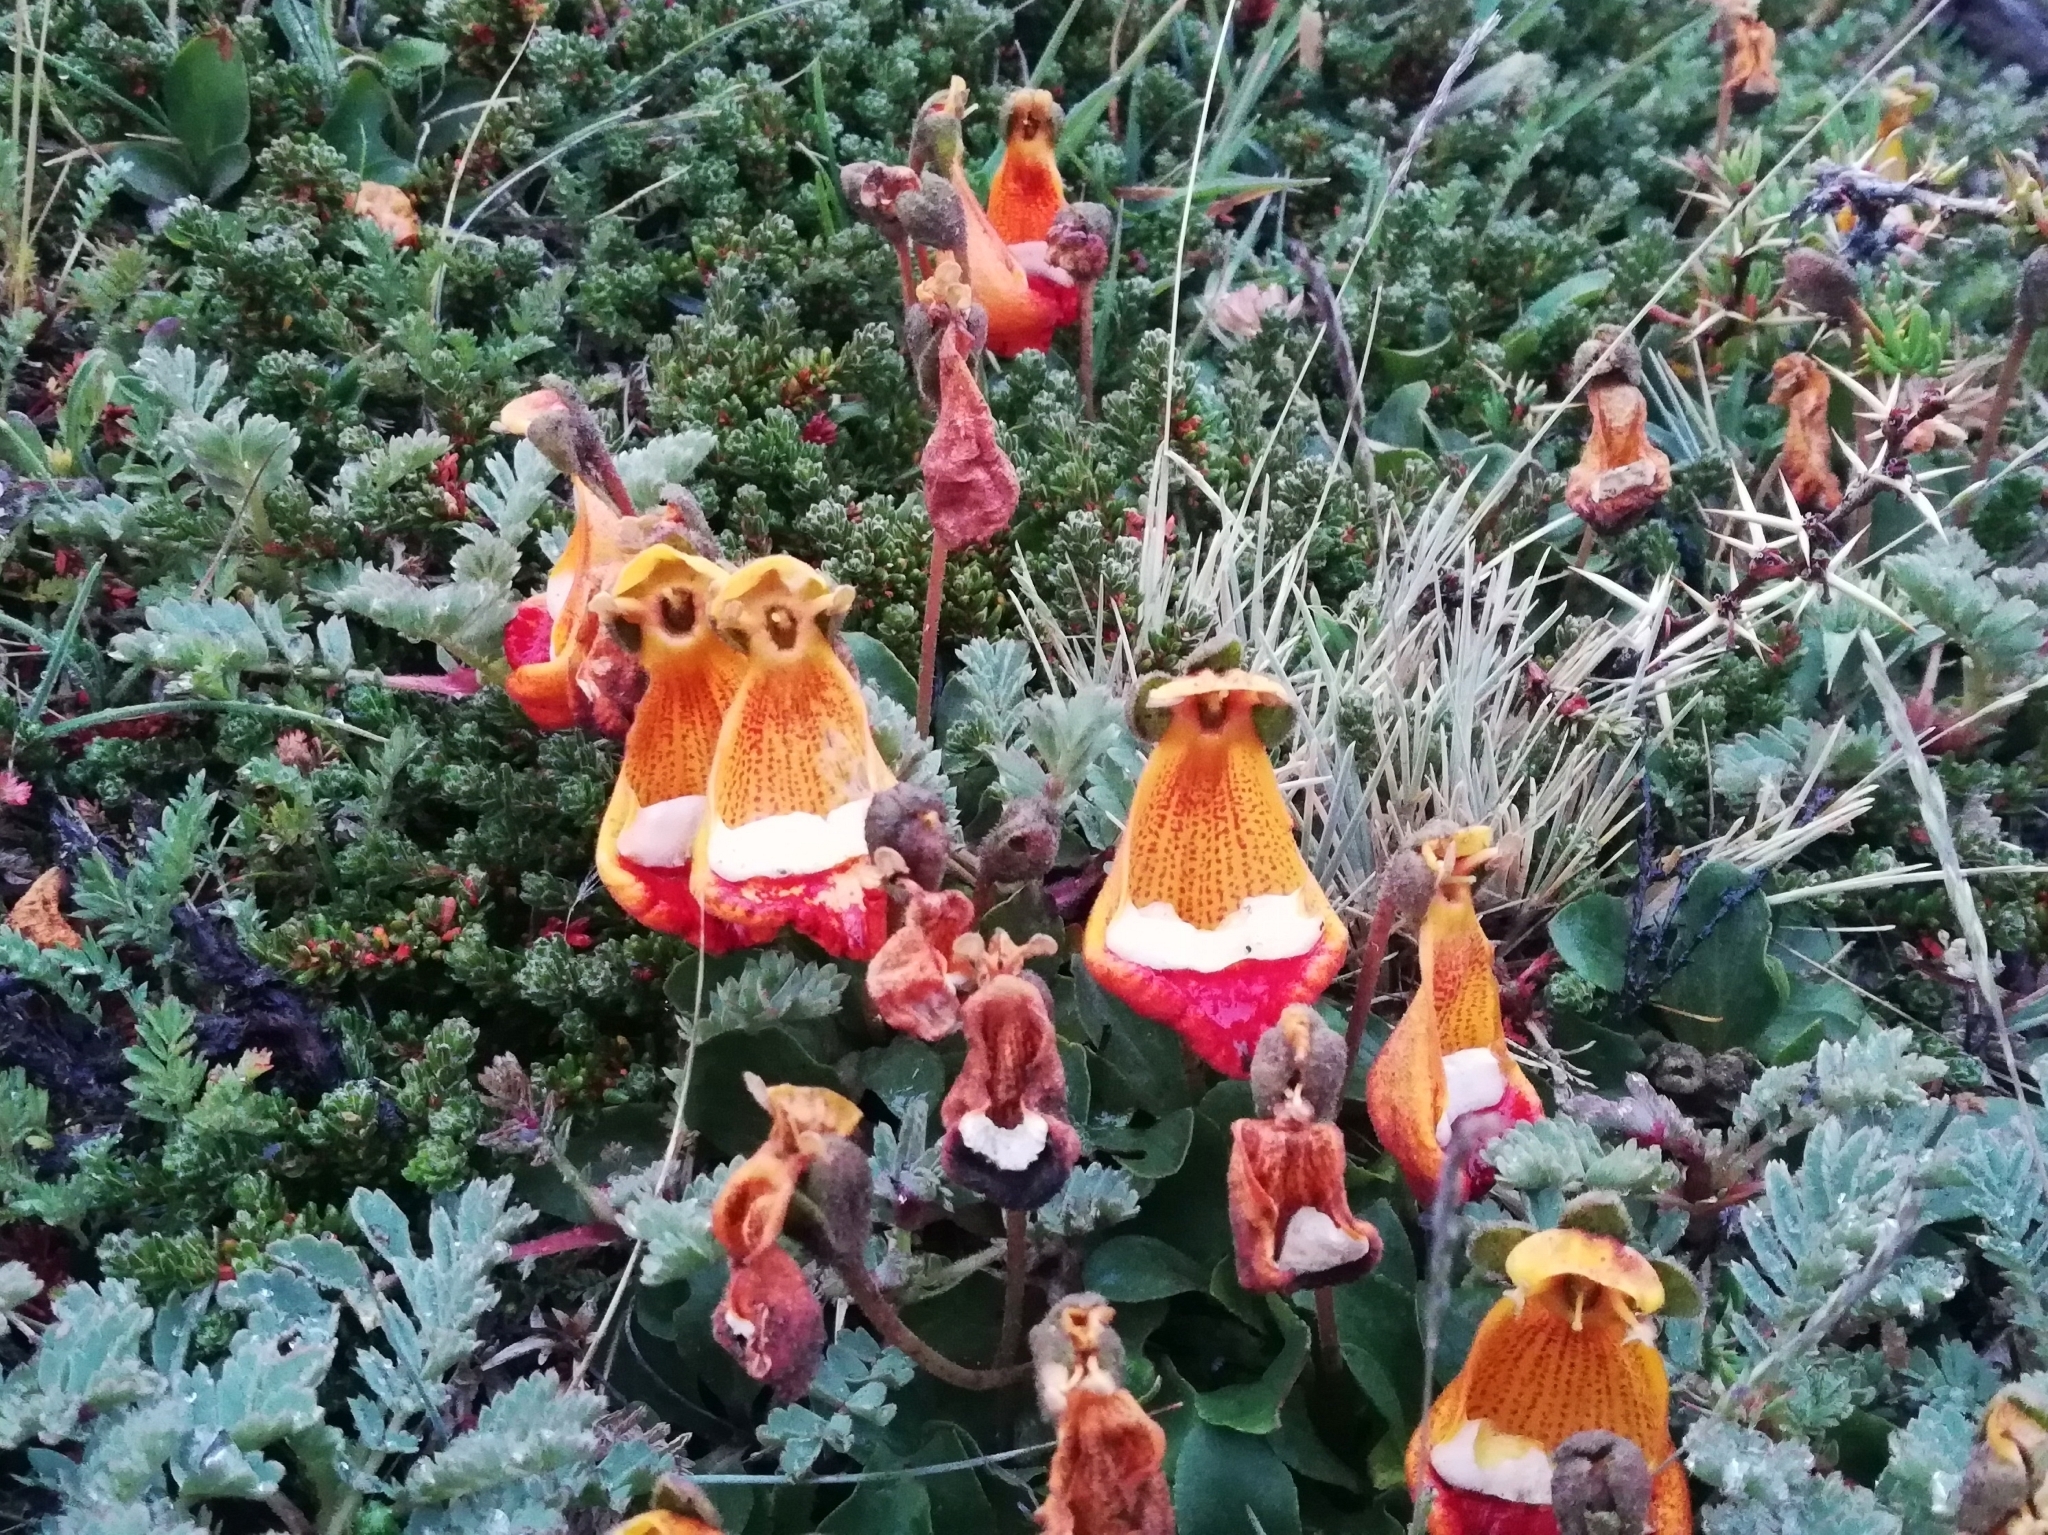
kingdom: Plantae
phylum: Tracheophyta
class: Magnoliopsida
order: Lamiales
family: Calceolariaceae
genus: Calceolaria
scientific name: Calceolaria uniflora
